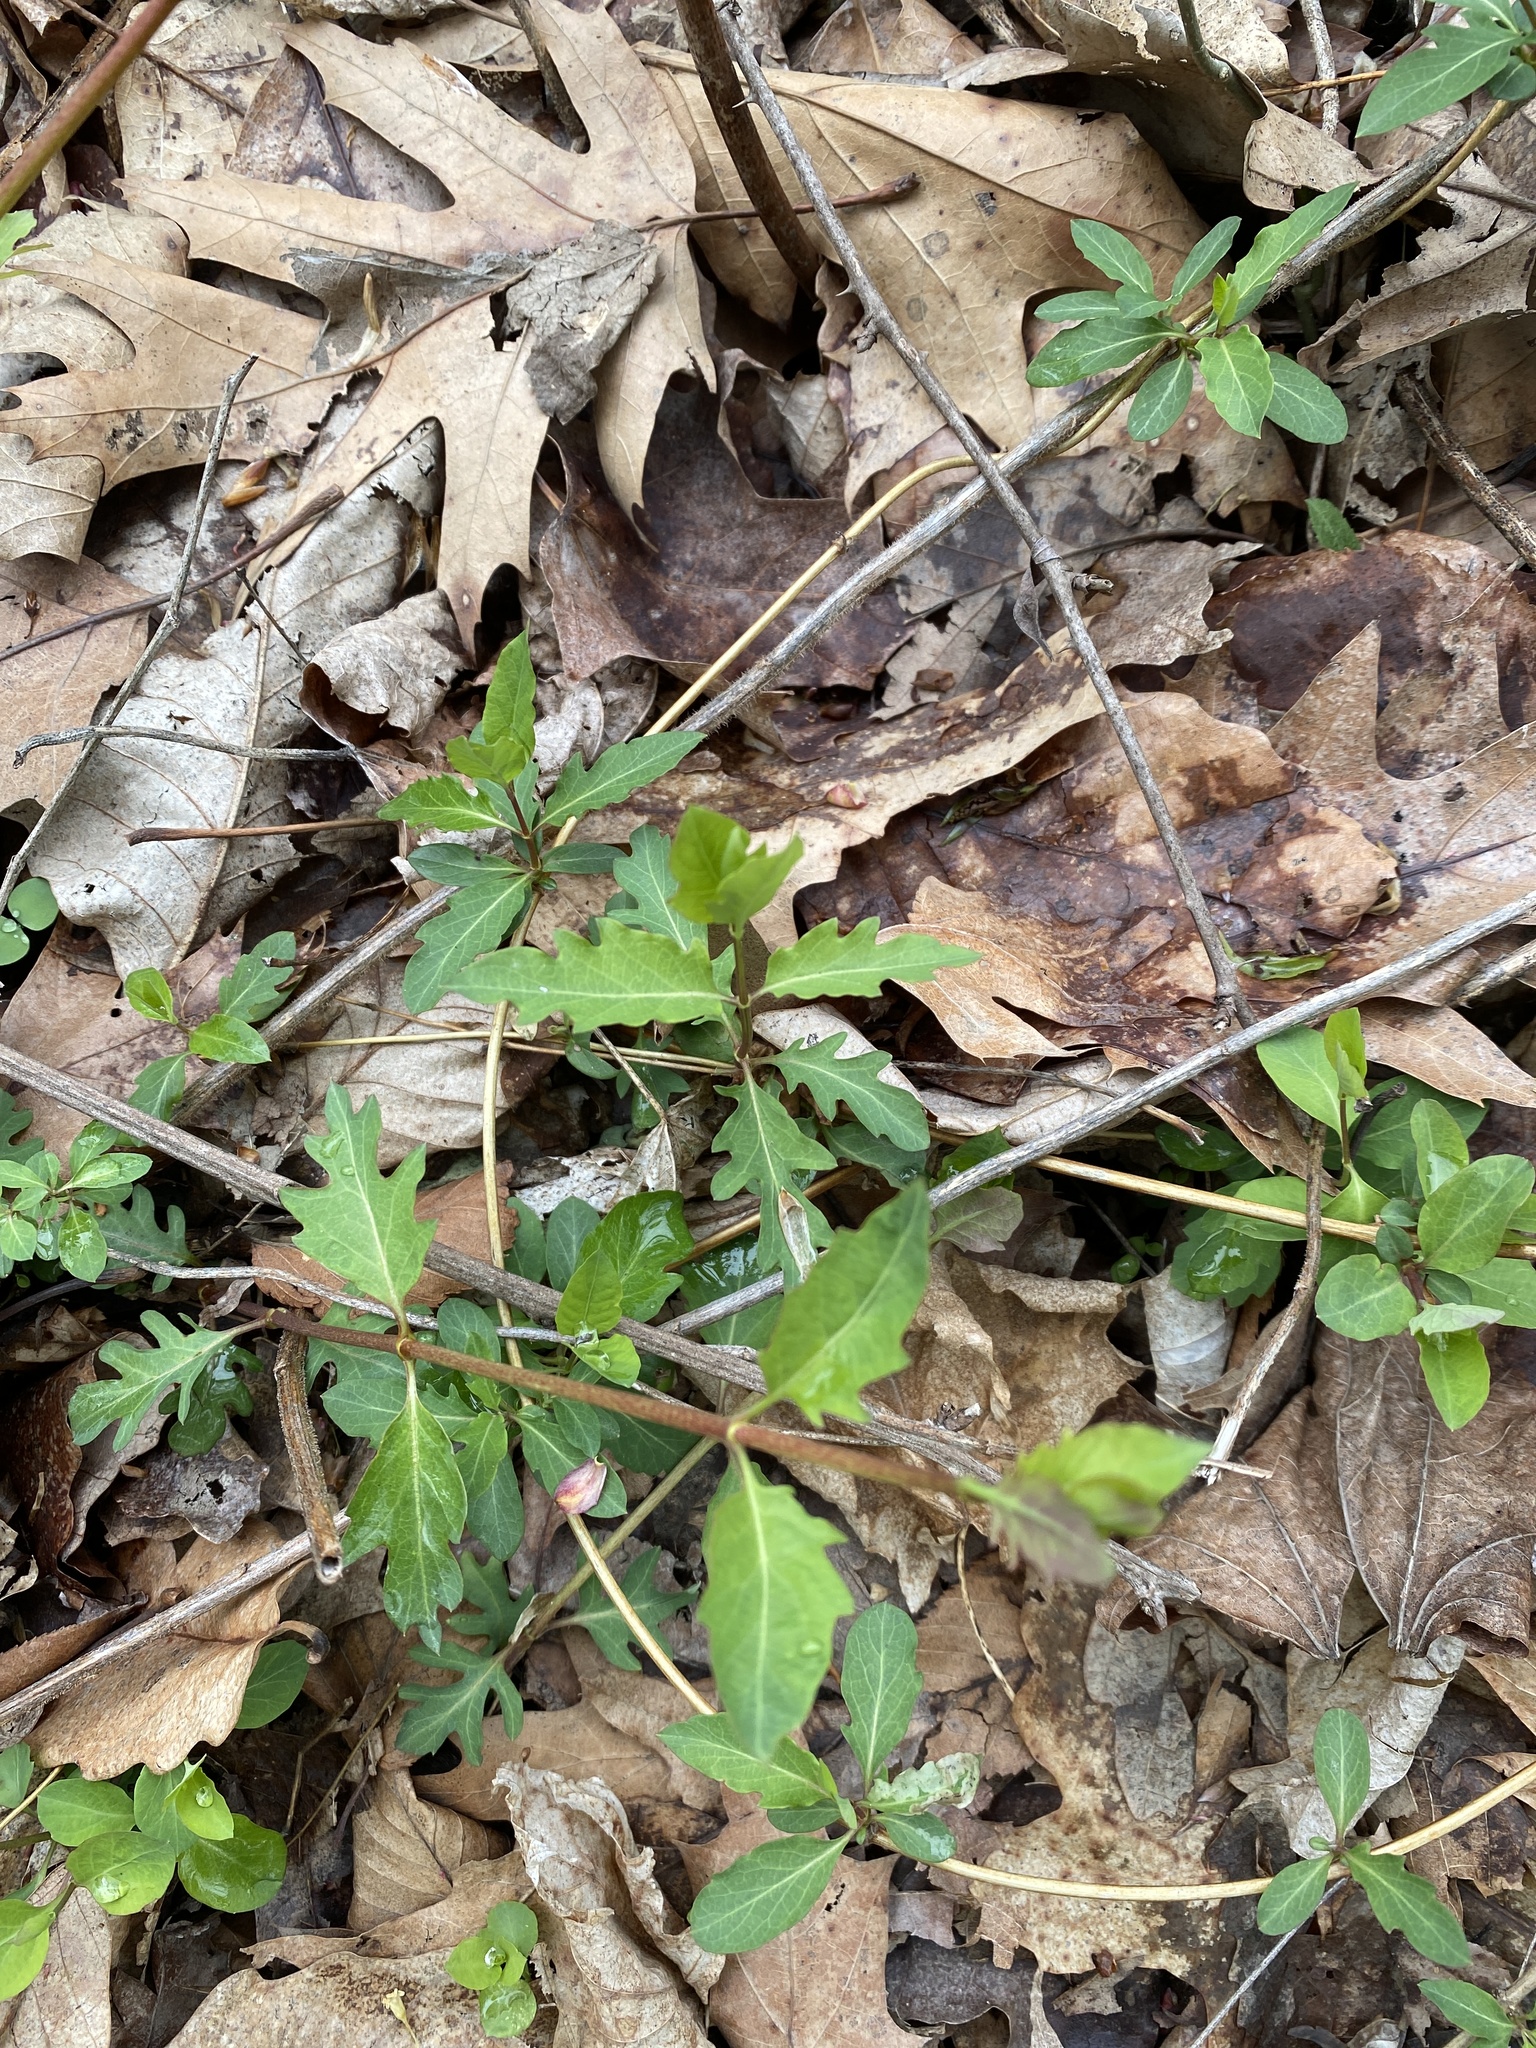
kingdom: Plantae
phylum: Tracheophyta
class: Magnoliopsida
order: Dipsacales
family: Caprifoliaceae
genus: Lonicera
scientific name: Lonicera japonica
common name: Japanese honeysuckle
